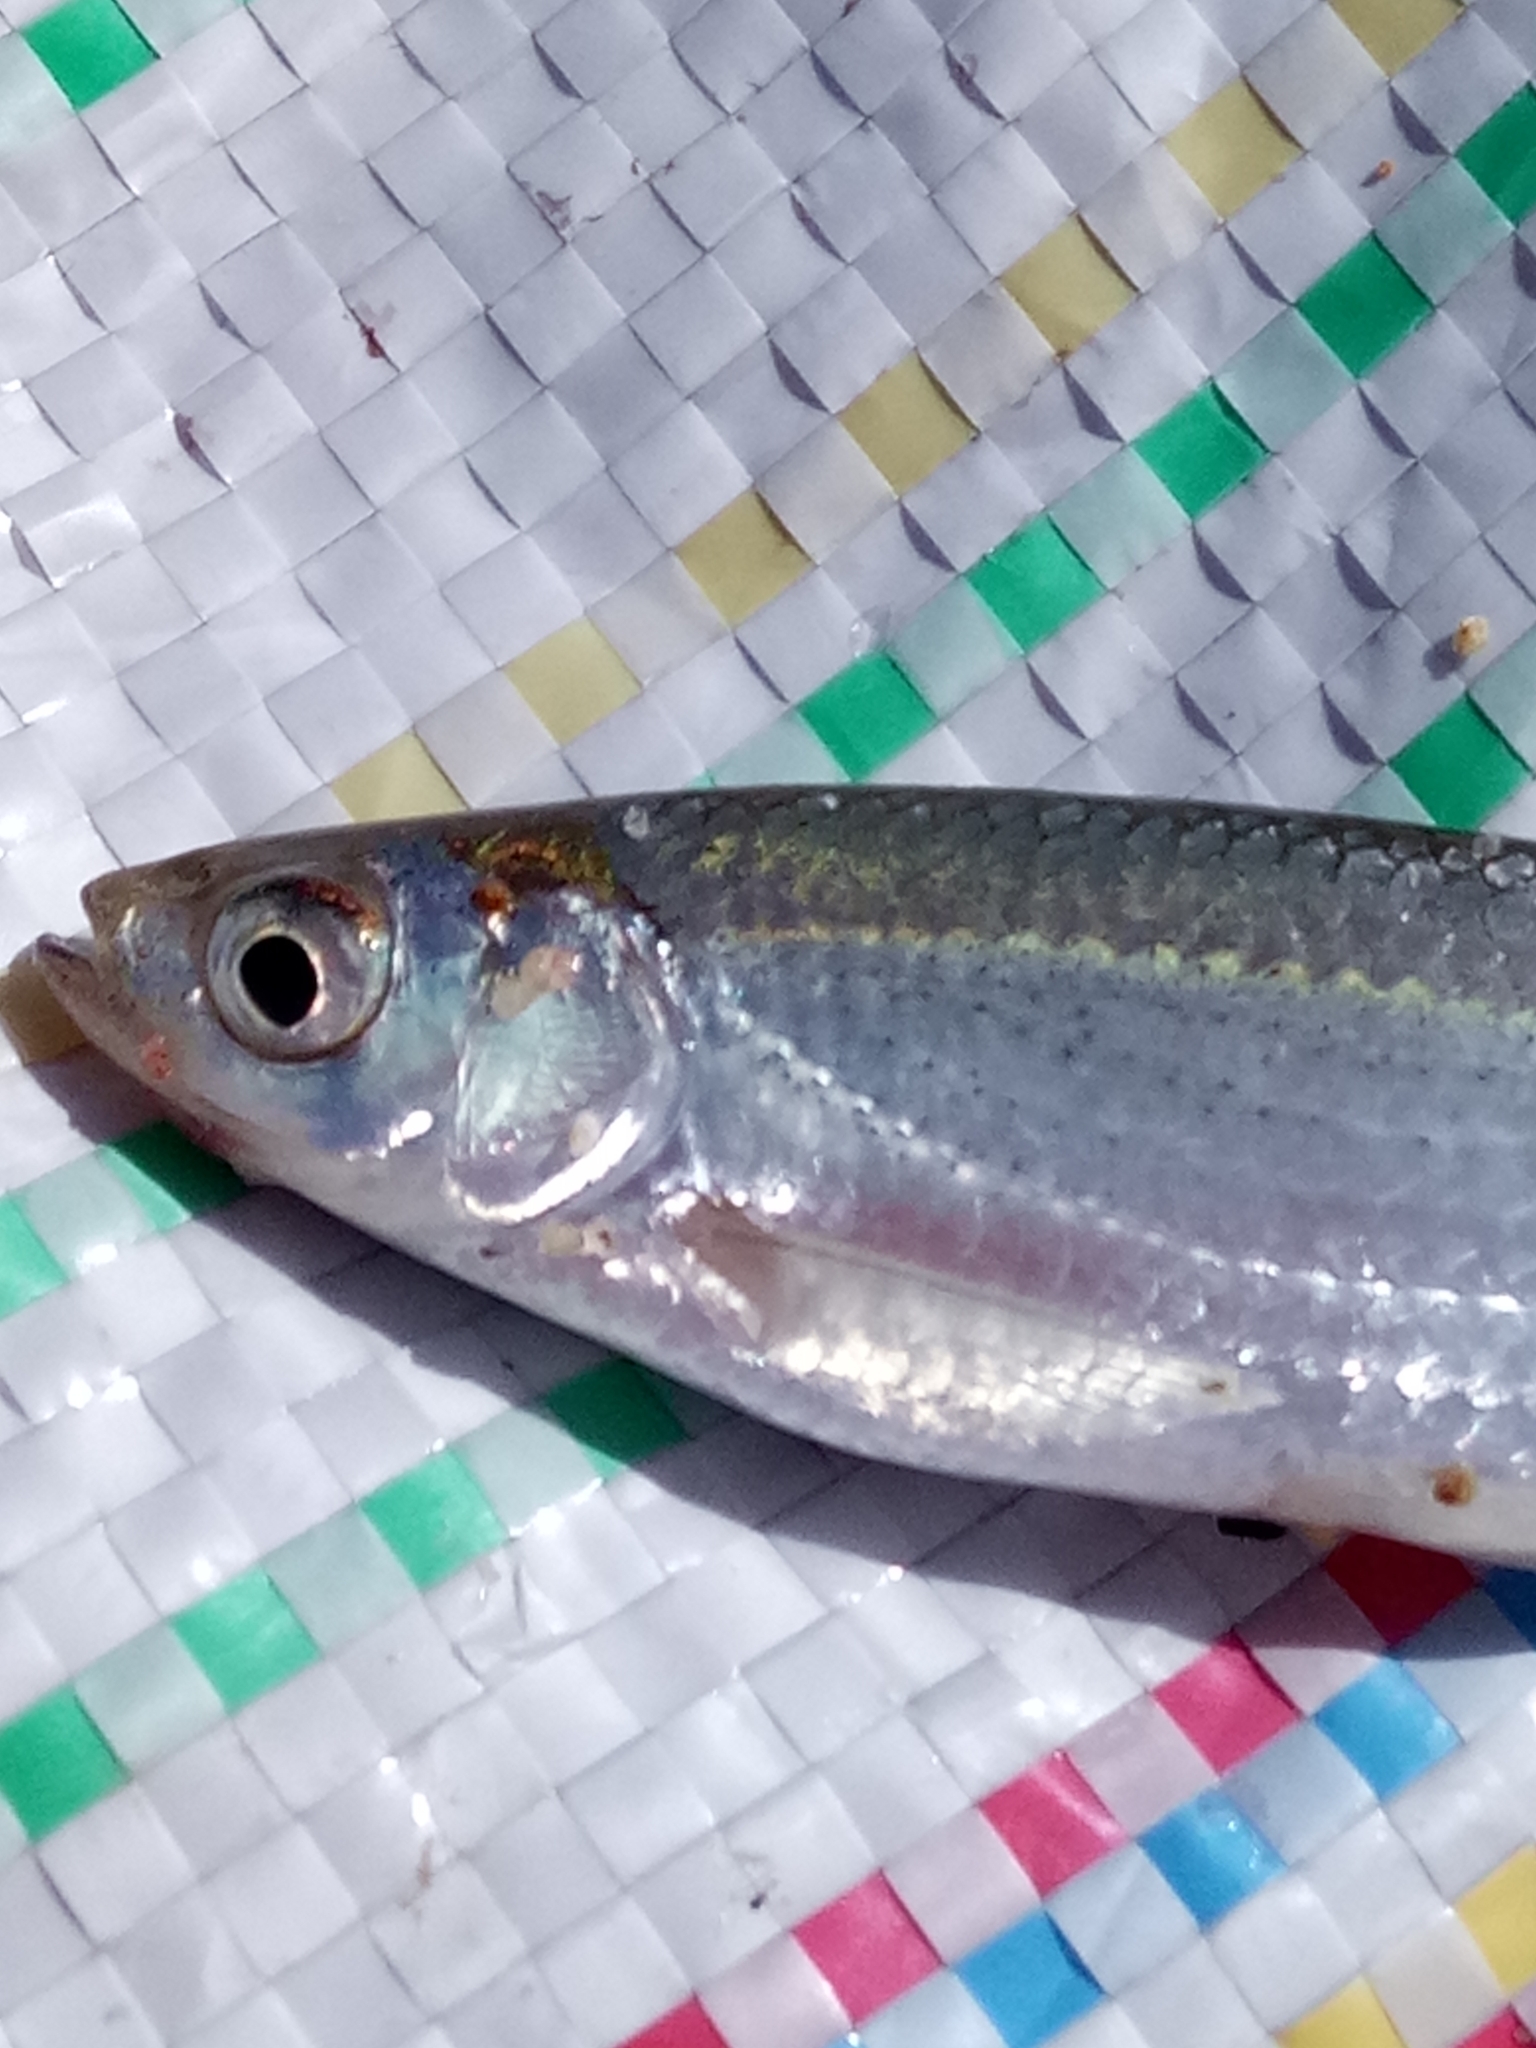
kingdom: Animalia
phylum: Chordata
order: Cypriniformes
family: Cyprinidae
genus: Alburnus
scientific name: Alburnus alburnus
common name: Bleak
